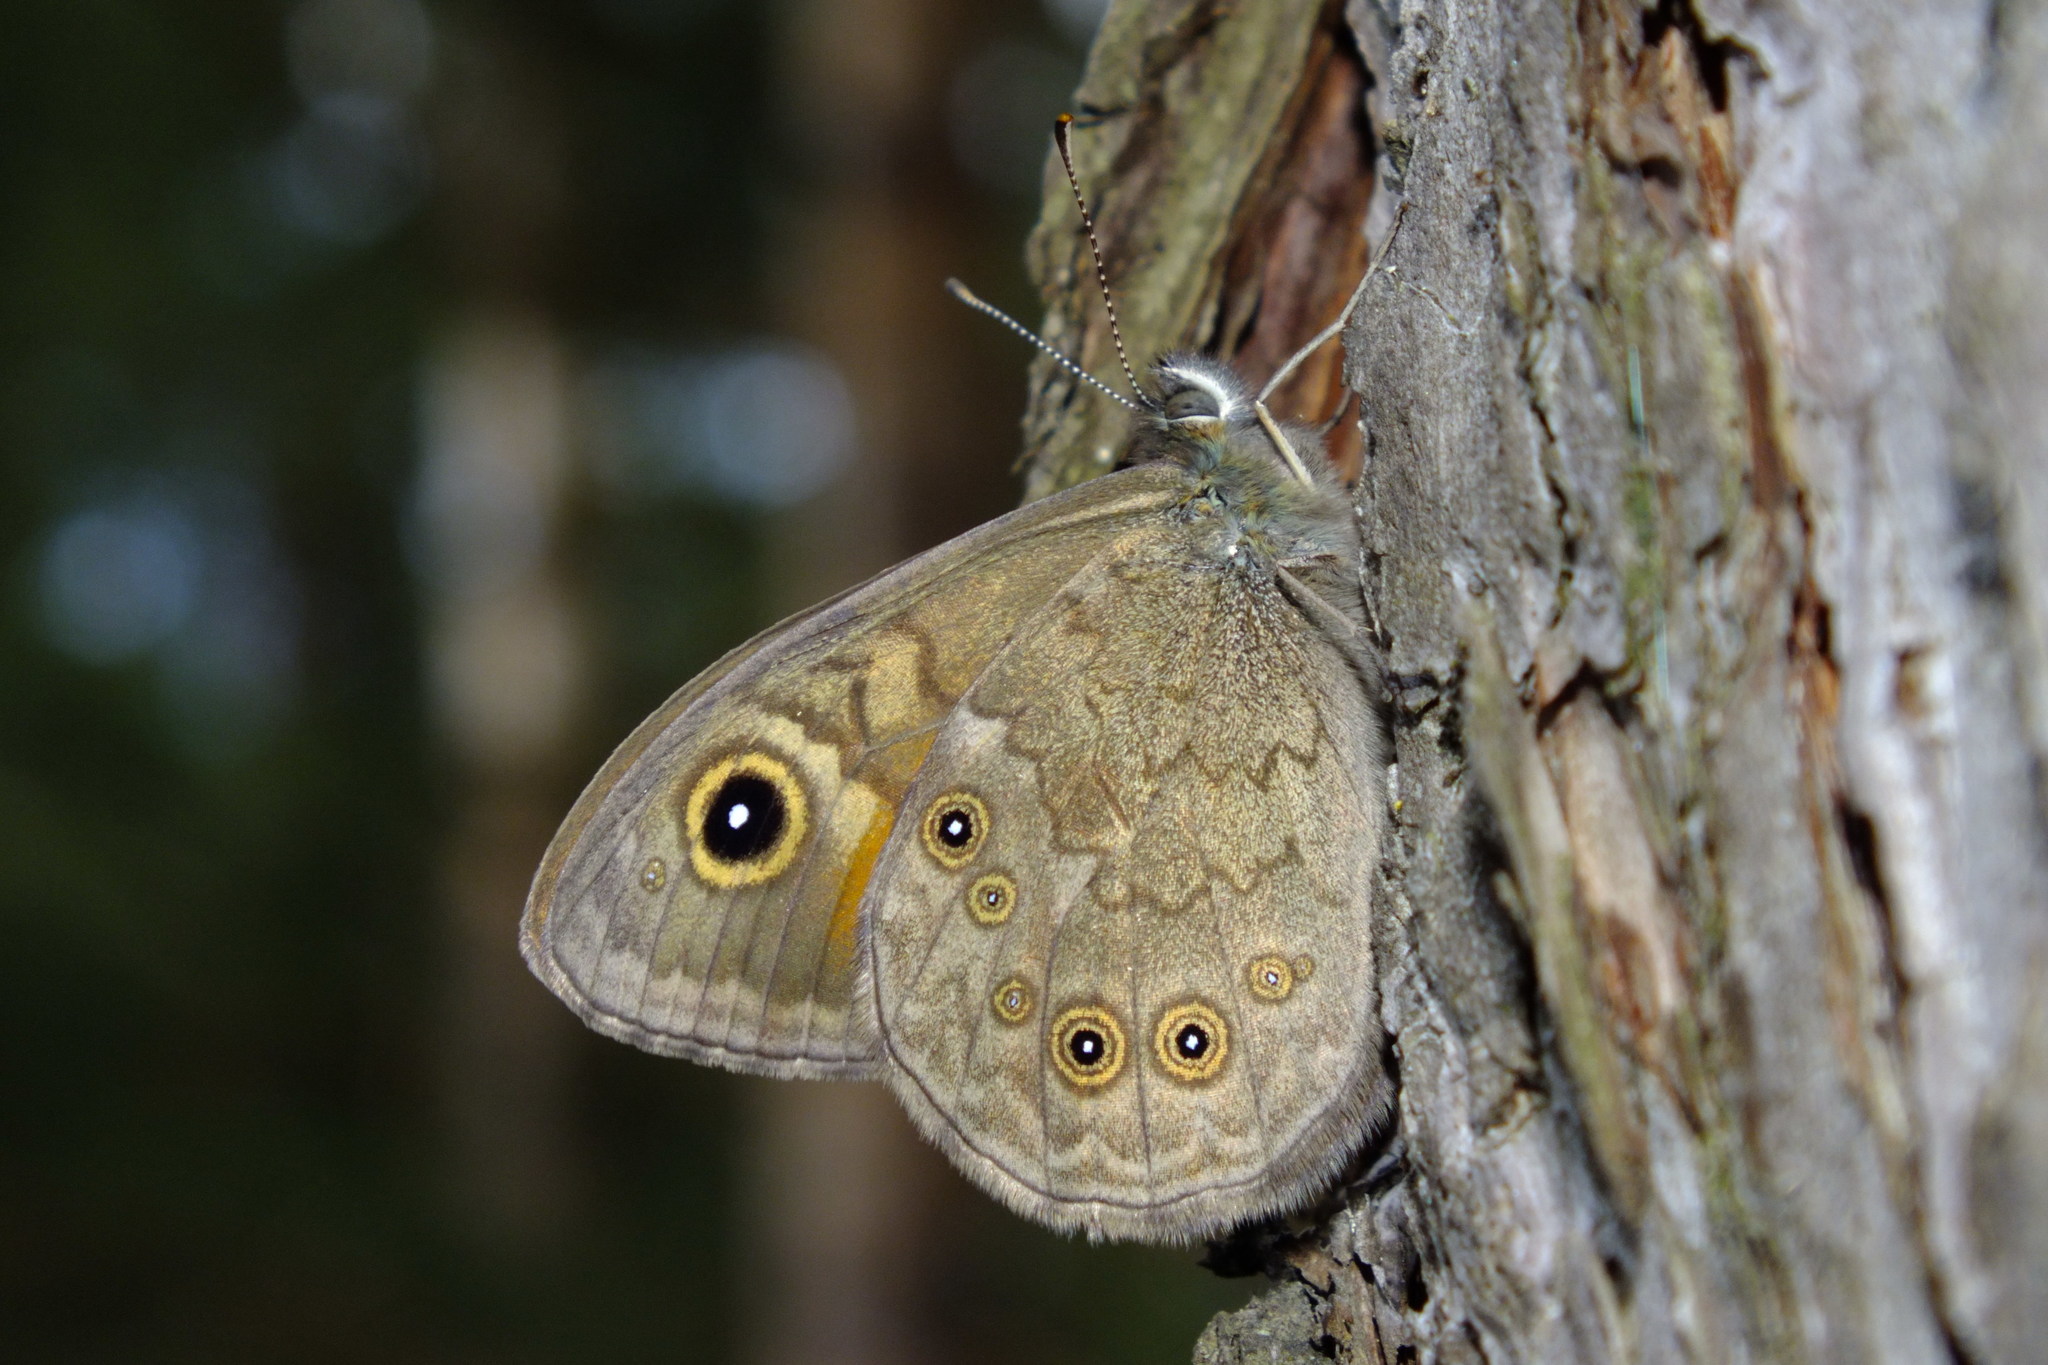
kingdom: Animalia
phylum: Arthropoda
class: Insecta
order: Lepidoptera
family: Nymphalidae
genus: Pararge
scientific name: Pararge Lasiommata maera
